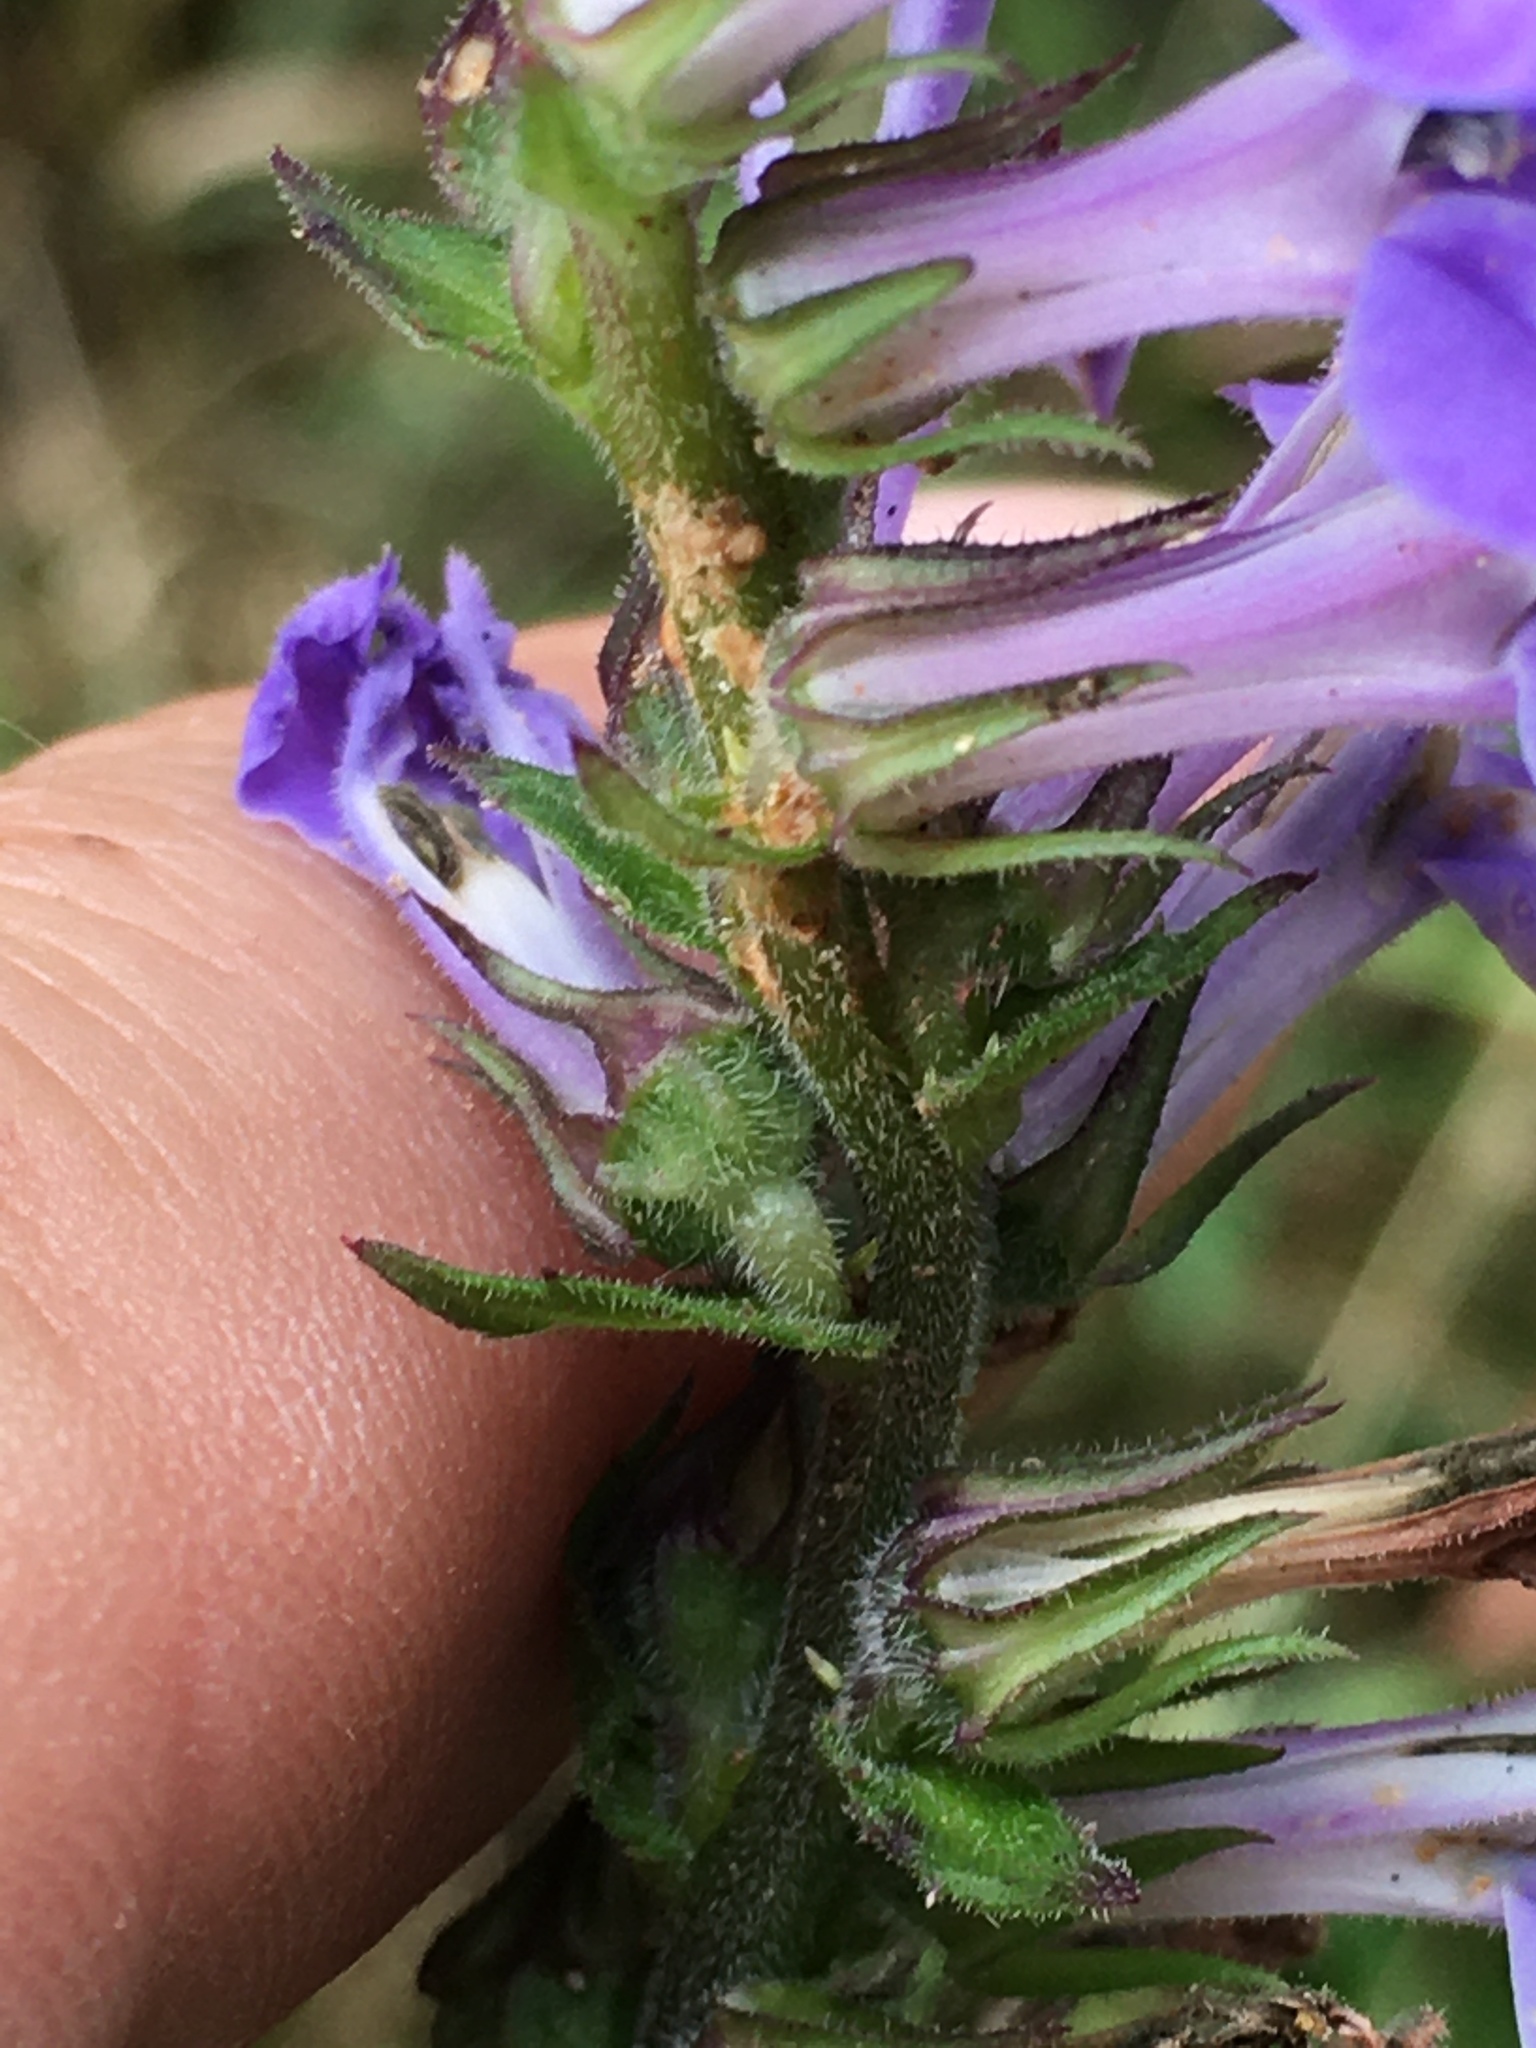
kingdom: Plantae
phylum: Tracheophyta
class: Magnoliopsida
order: Asterales
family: Campanulaceae
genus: Lobelia
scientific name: Lobelia puberula
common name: Purple dewdrop
